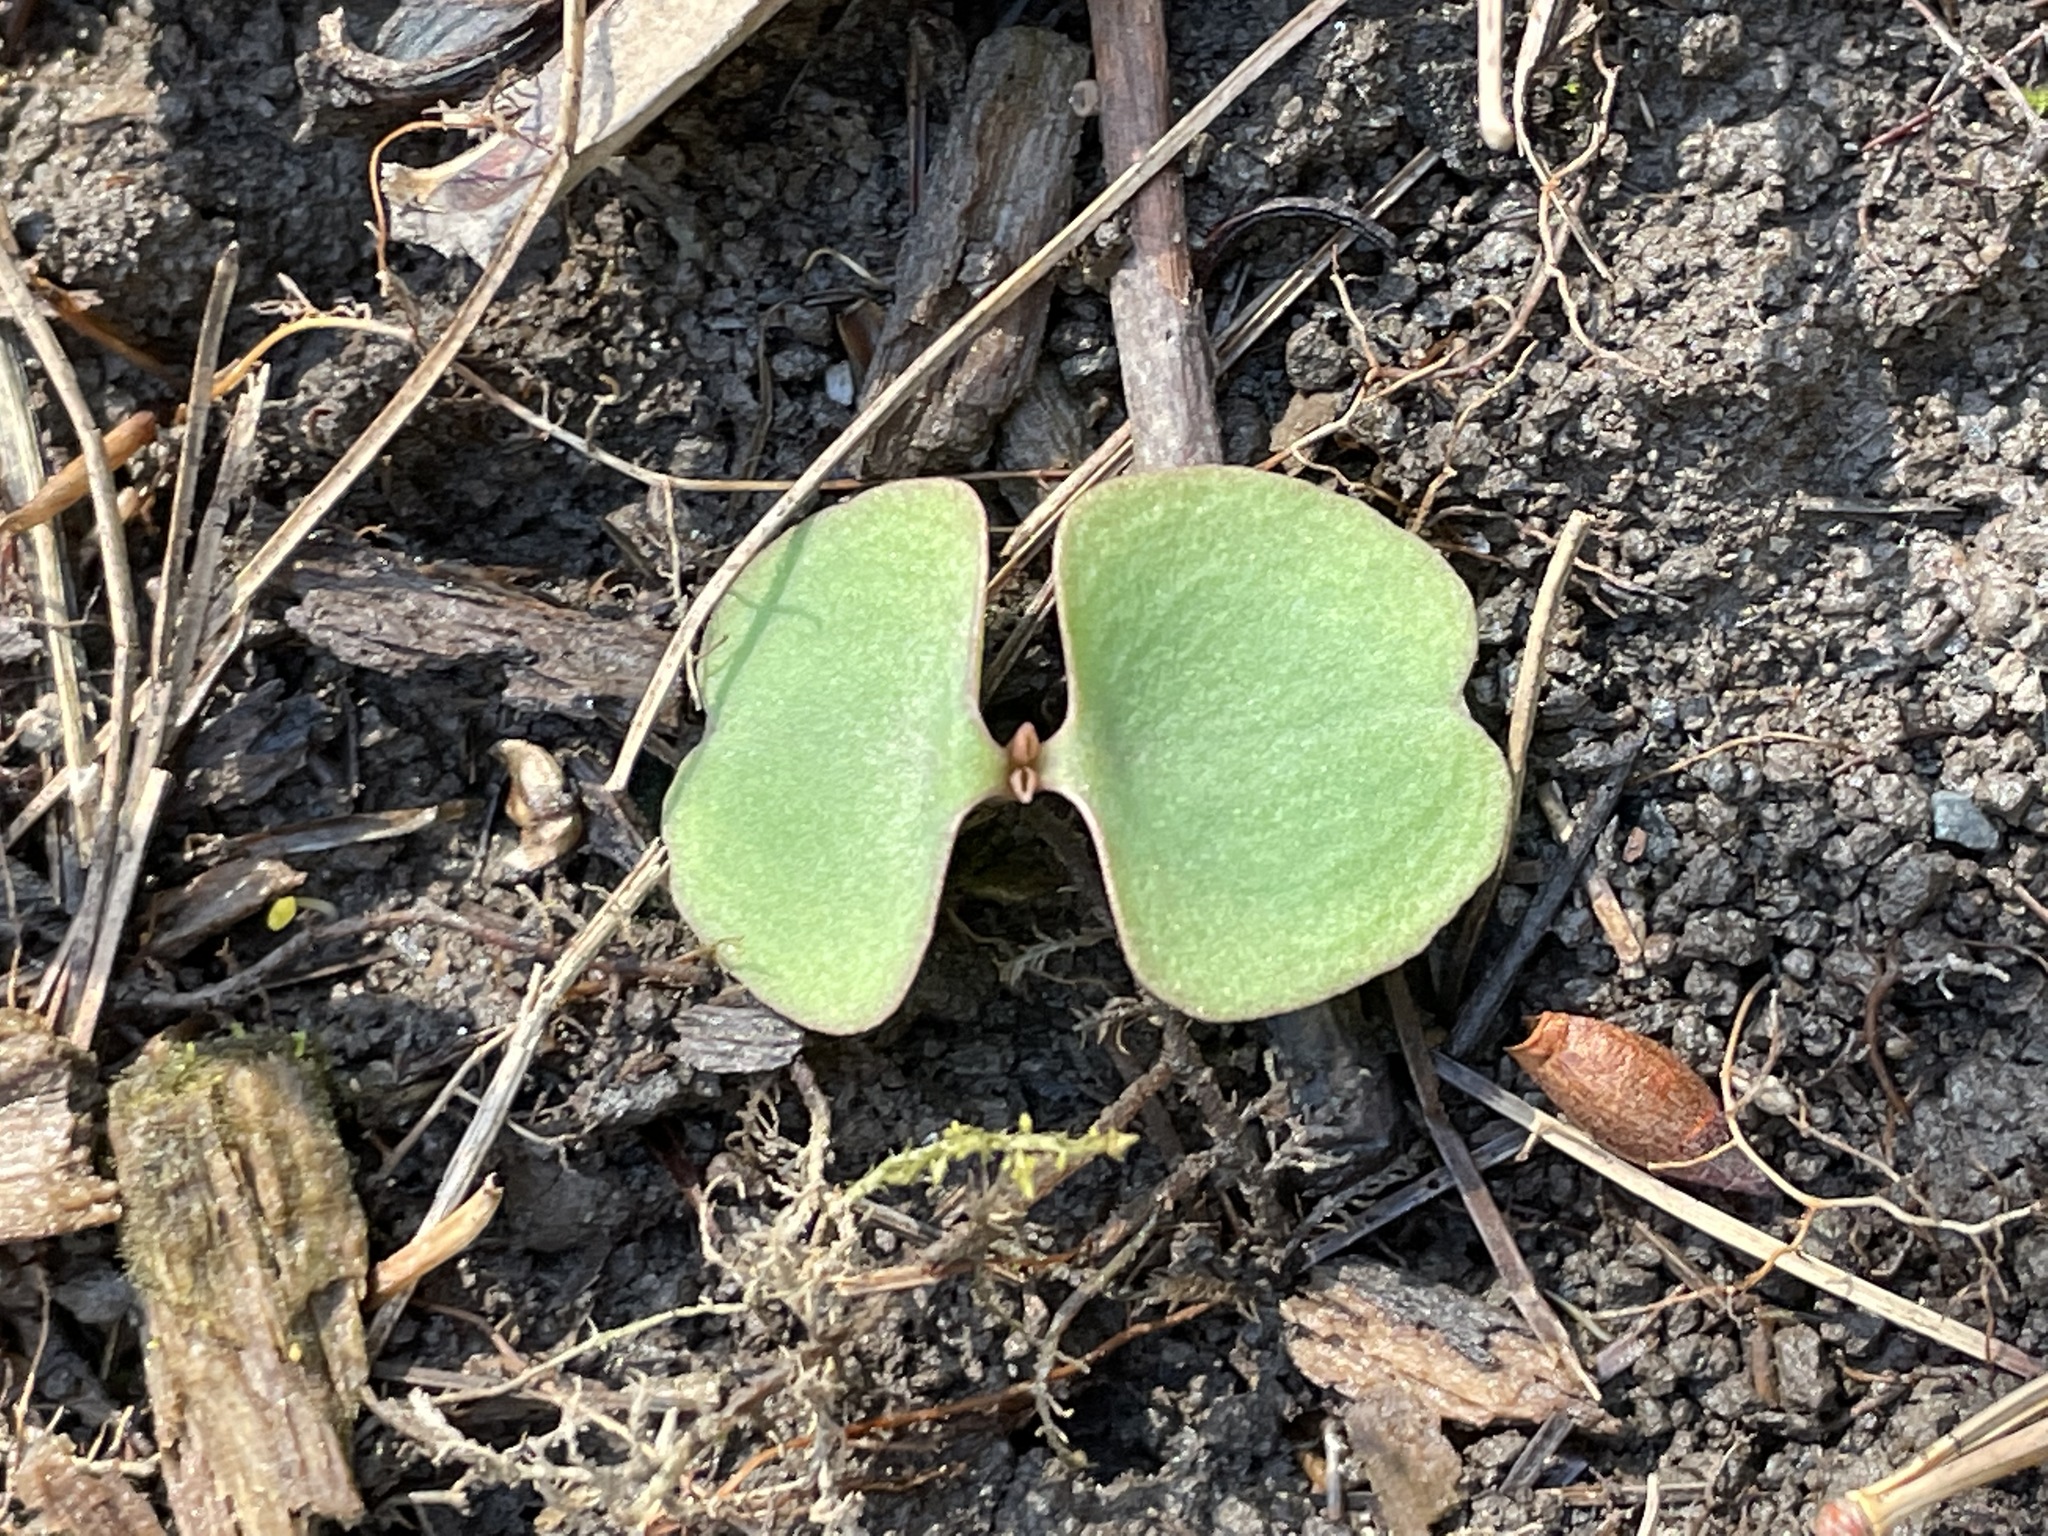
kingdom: Plantae
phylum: Tracheophyta
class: Magnoliopsida
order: Ericales
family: Balsaminaceae
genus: Impatiens
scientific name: Impatiens
